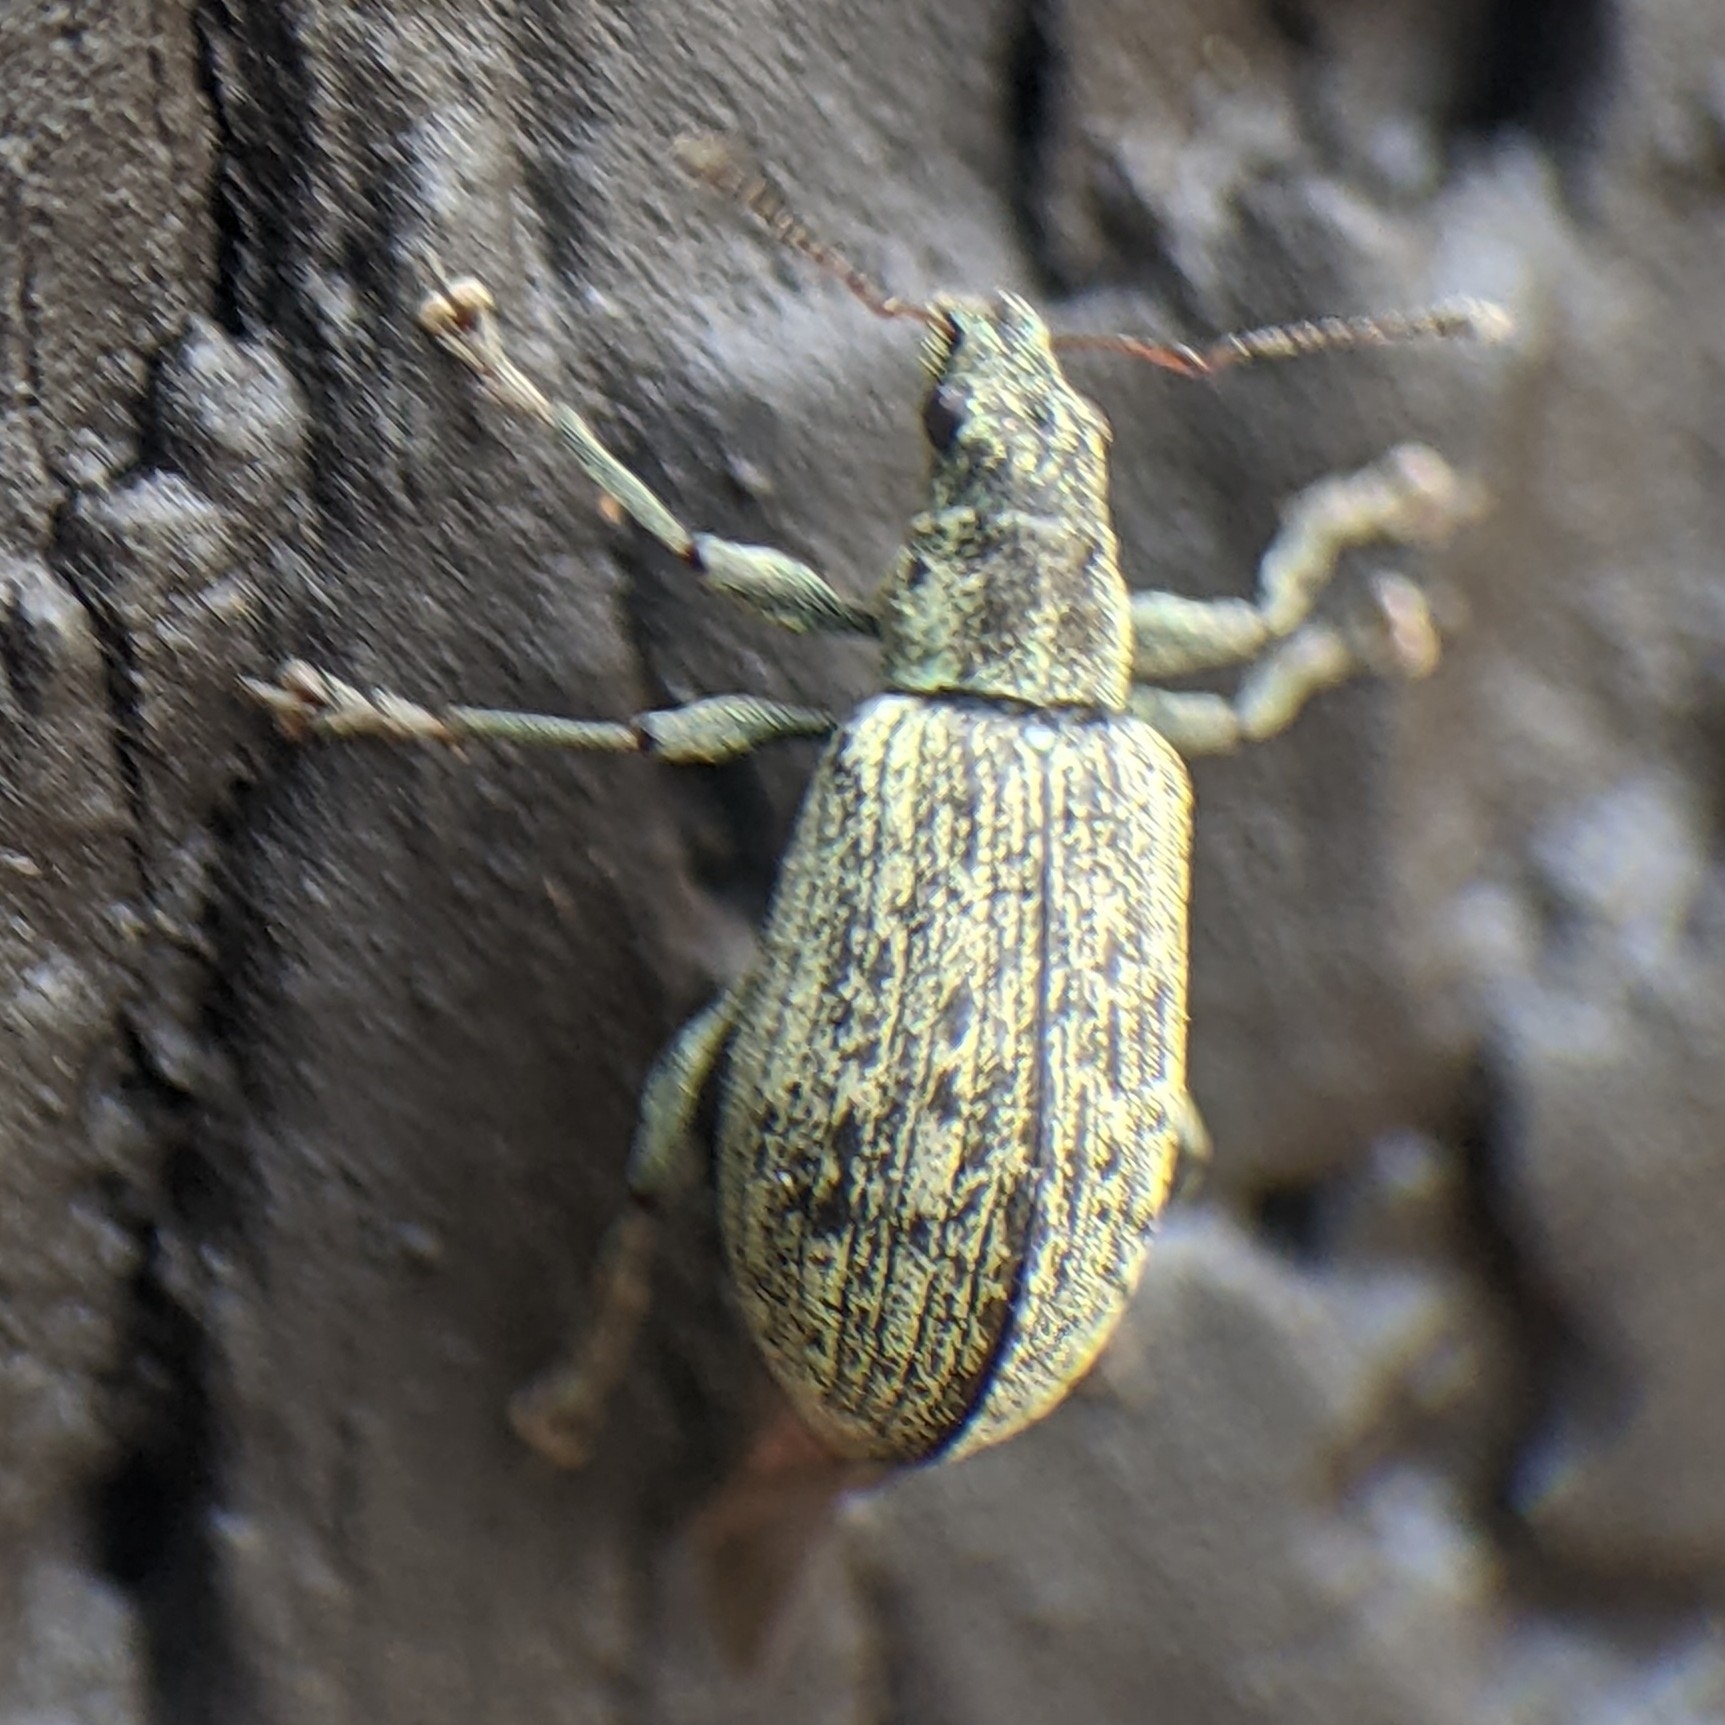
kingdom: Animalia
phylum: Arthropoda
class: Insecta
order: Coleoptera
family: Curculionidae
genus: Polydrusus
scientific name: Polydrusus cervinus
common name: Weevil
